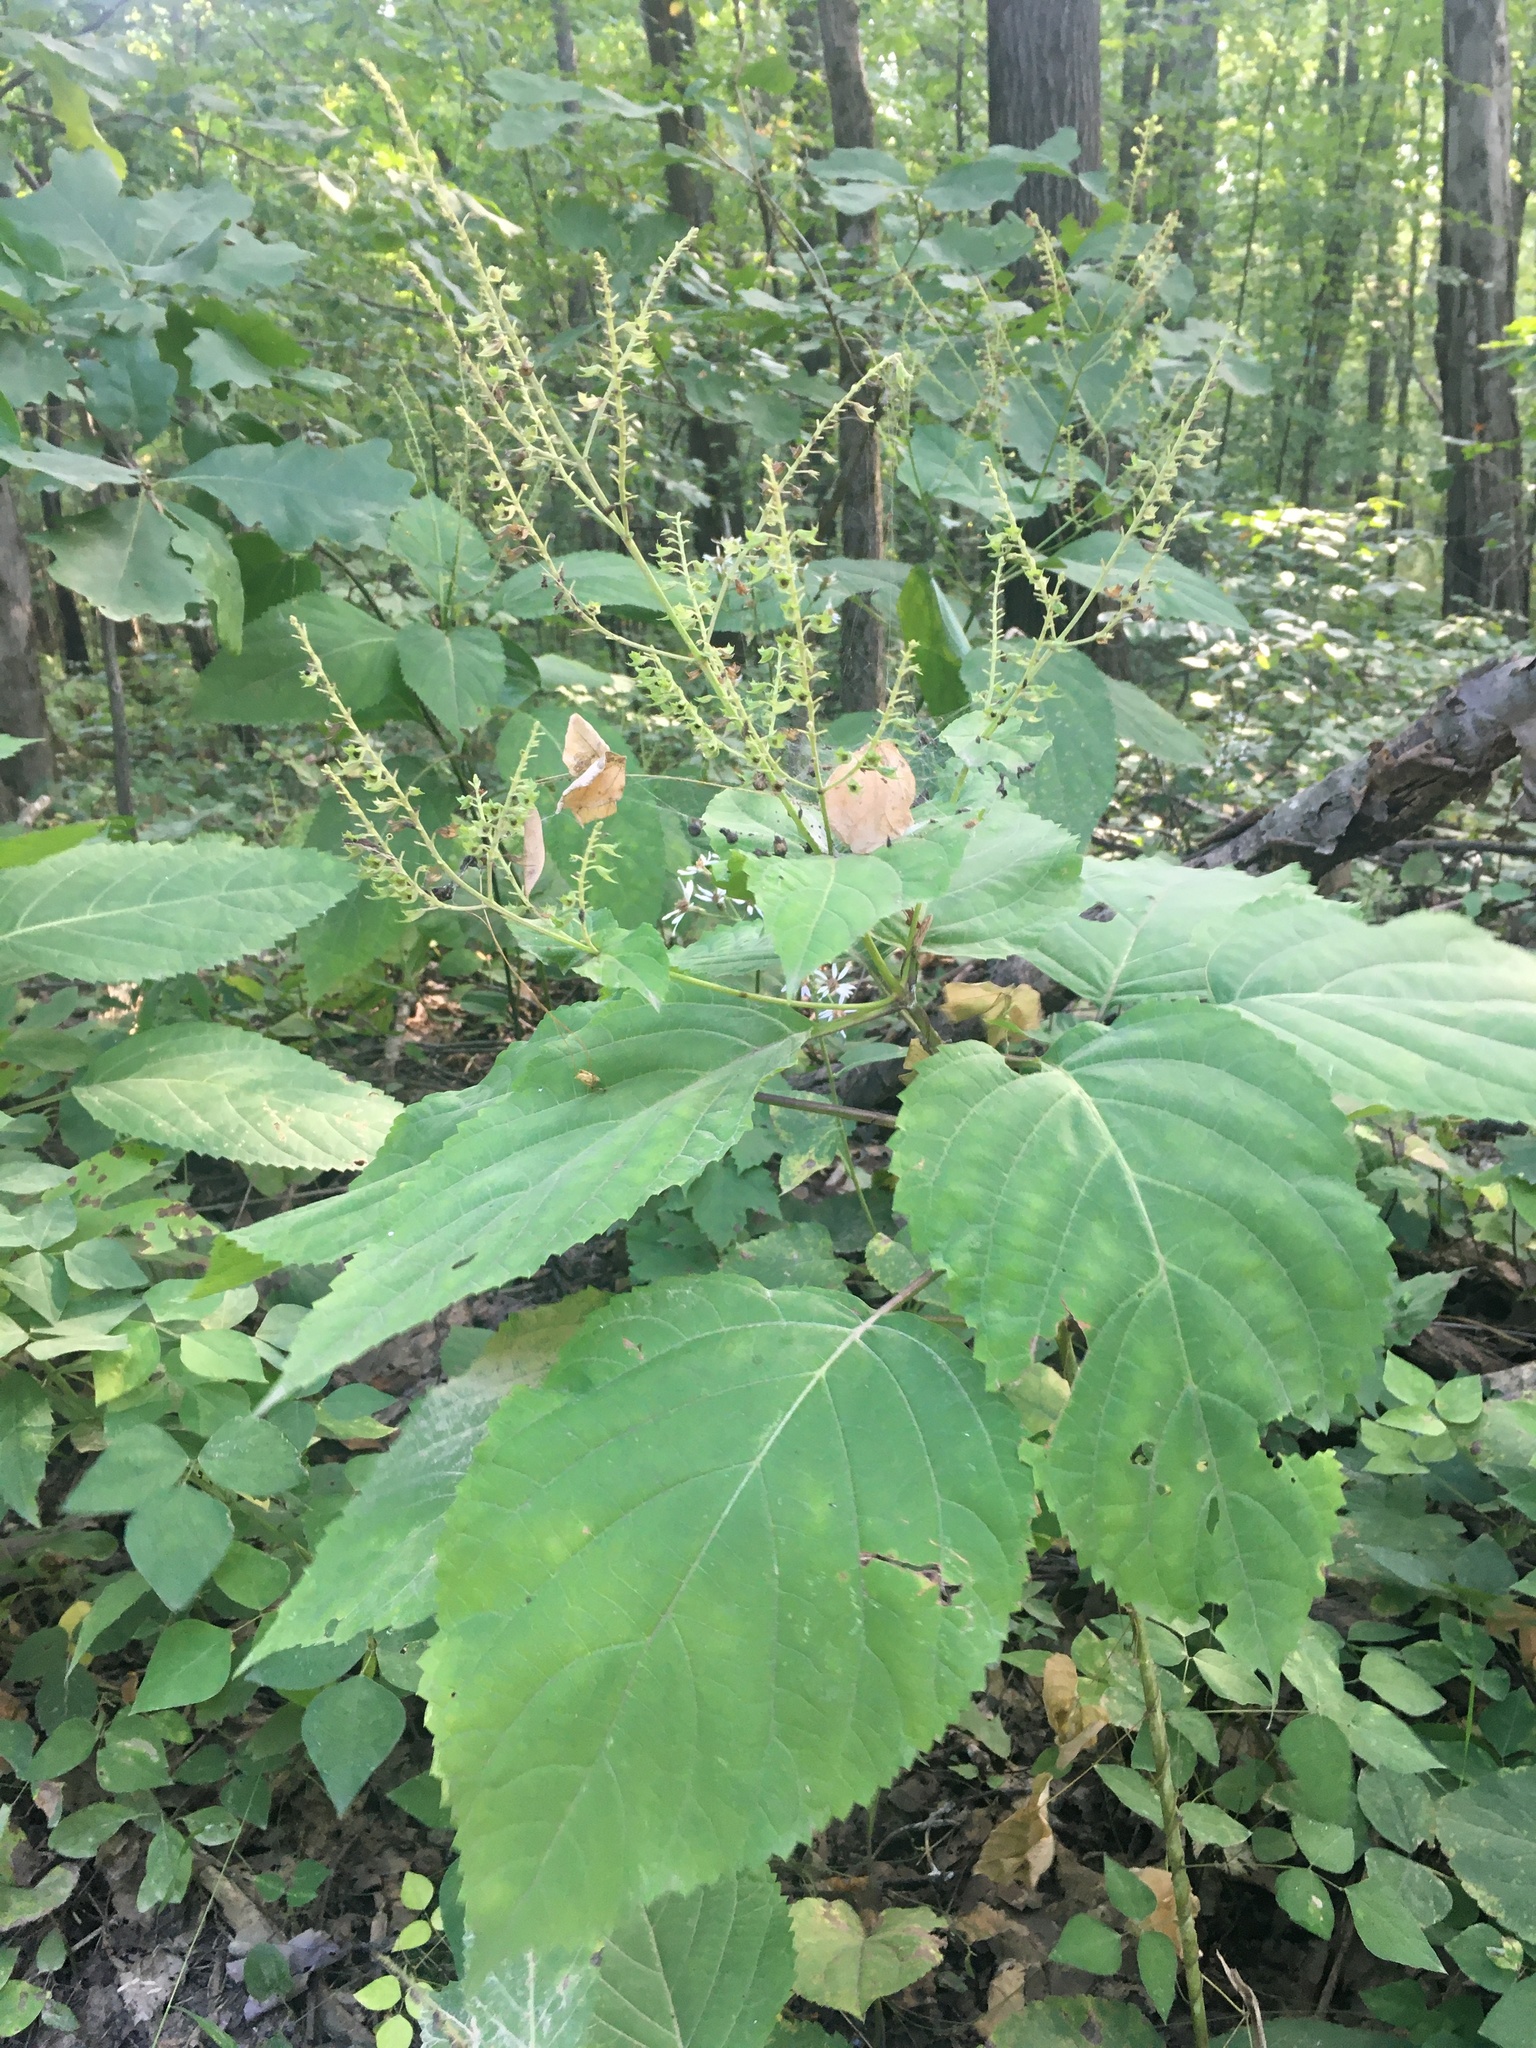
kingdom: Plantae
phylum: Tracheophyta
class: Magnoliopsida
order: Lamiales
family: Lamiaceae
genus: Collinsonia
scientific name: Collinsonia canadensis
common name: Northern horsebalm
